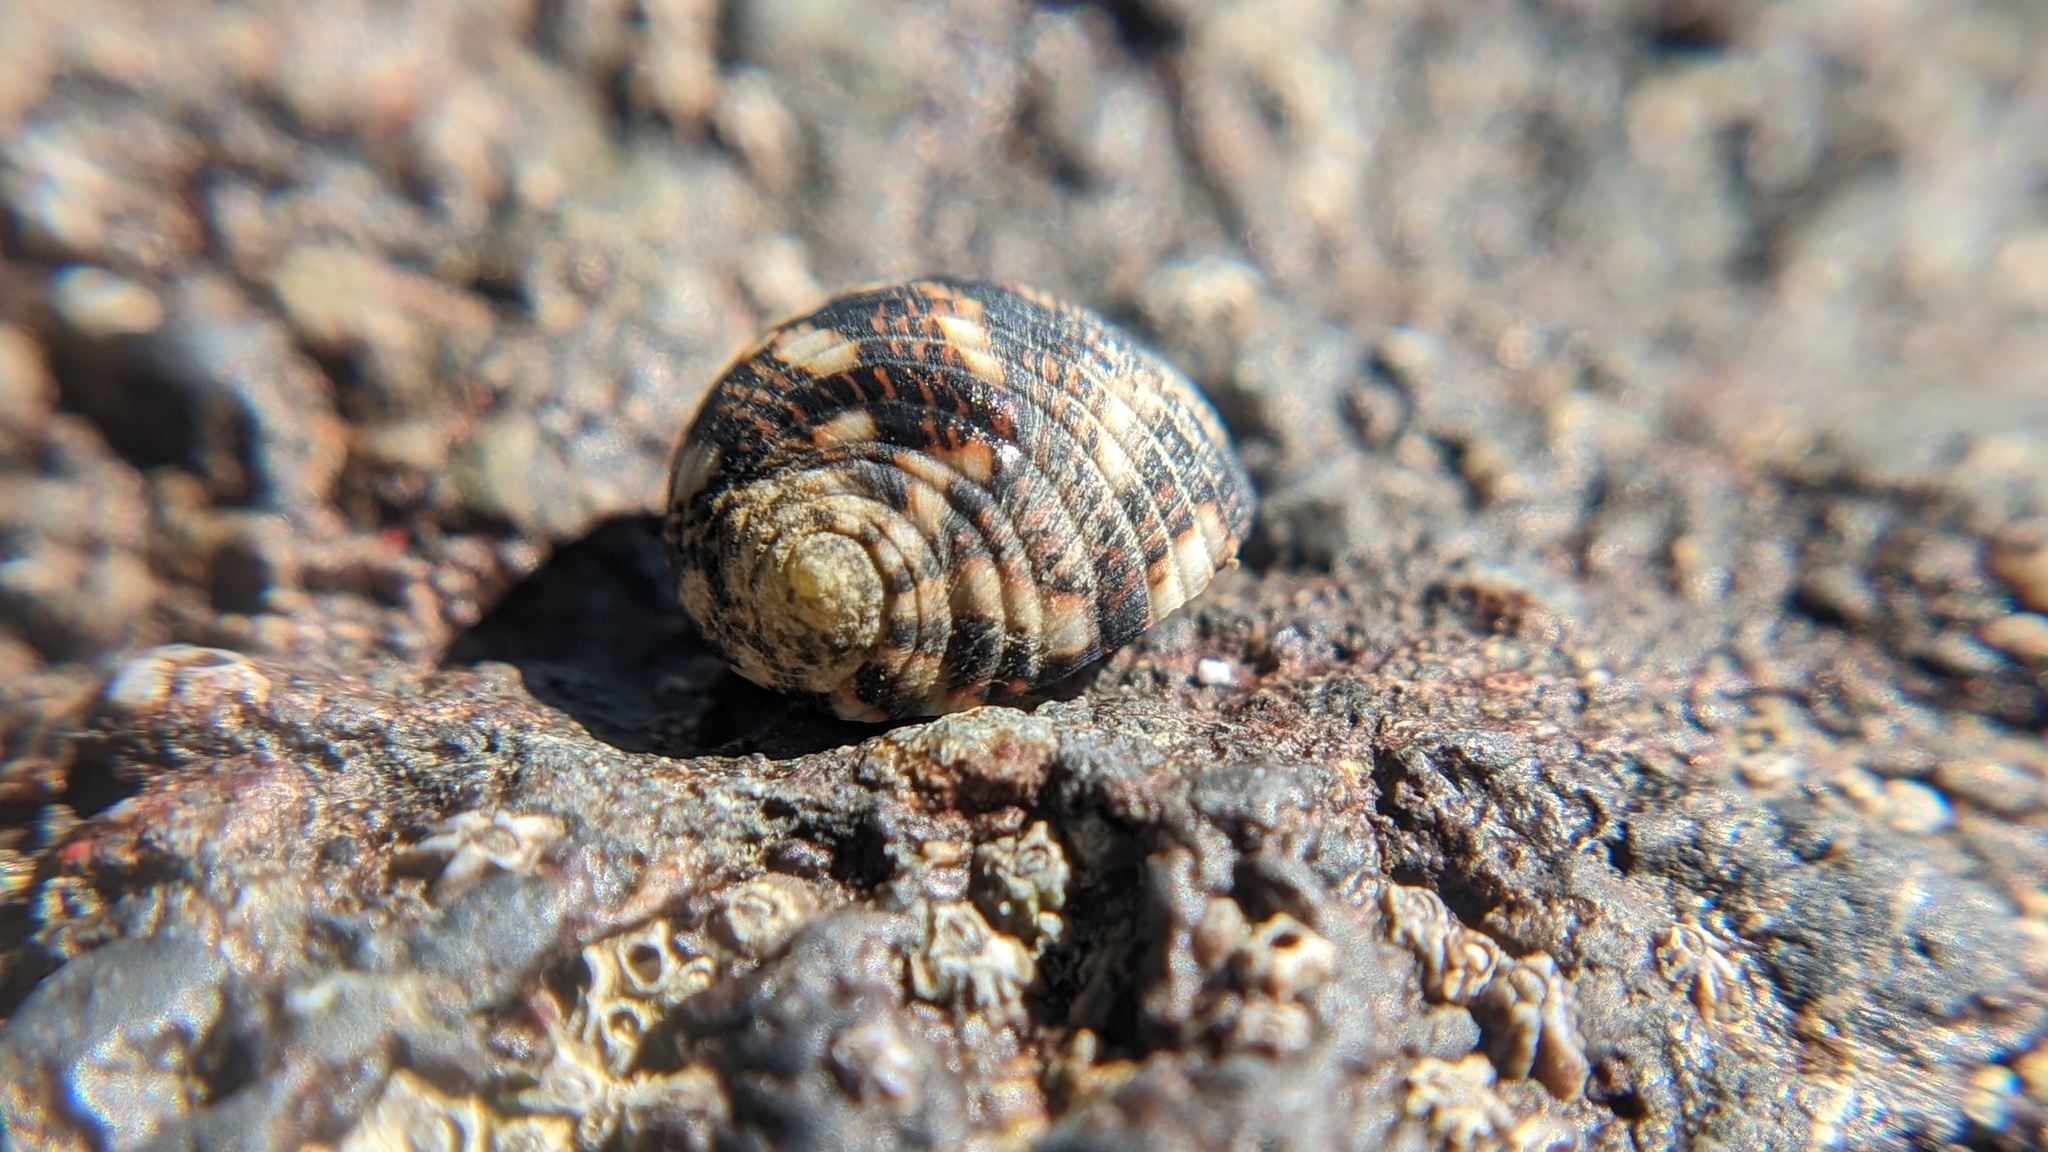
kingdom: Animalia
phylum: Mollusca
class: Gastropoda
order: Cycloneritida
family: Neritidae
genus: Nerita
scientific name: Nerita funiculata
